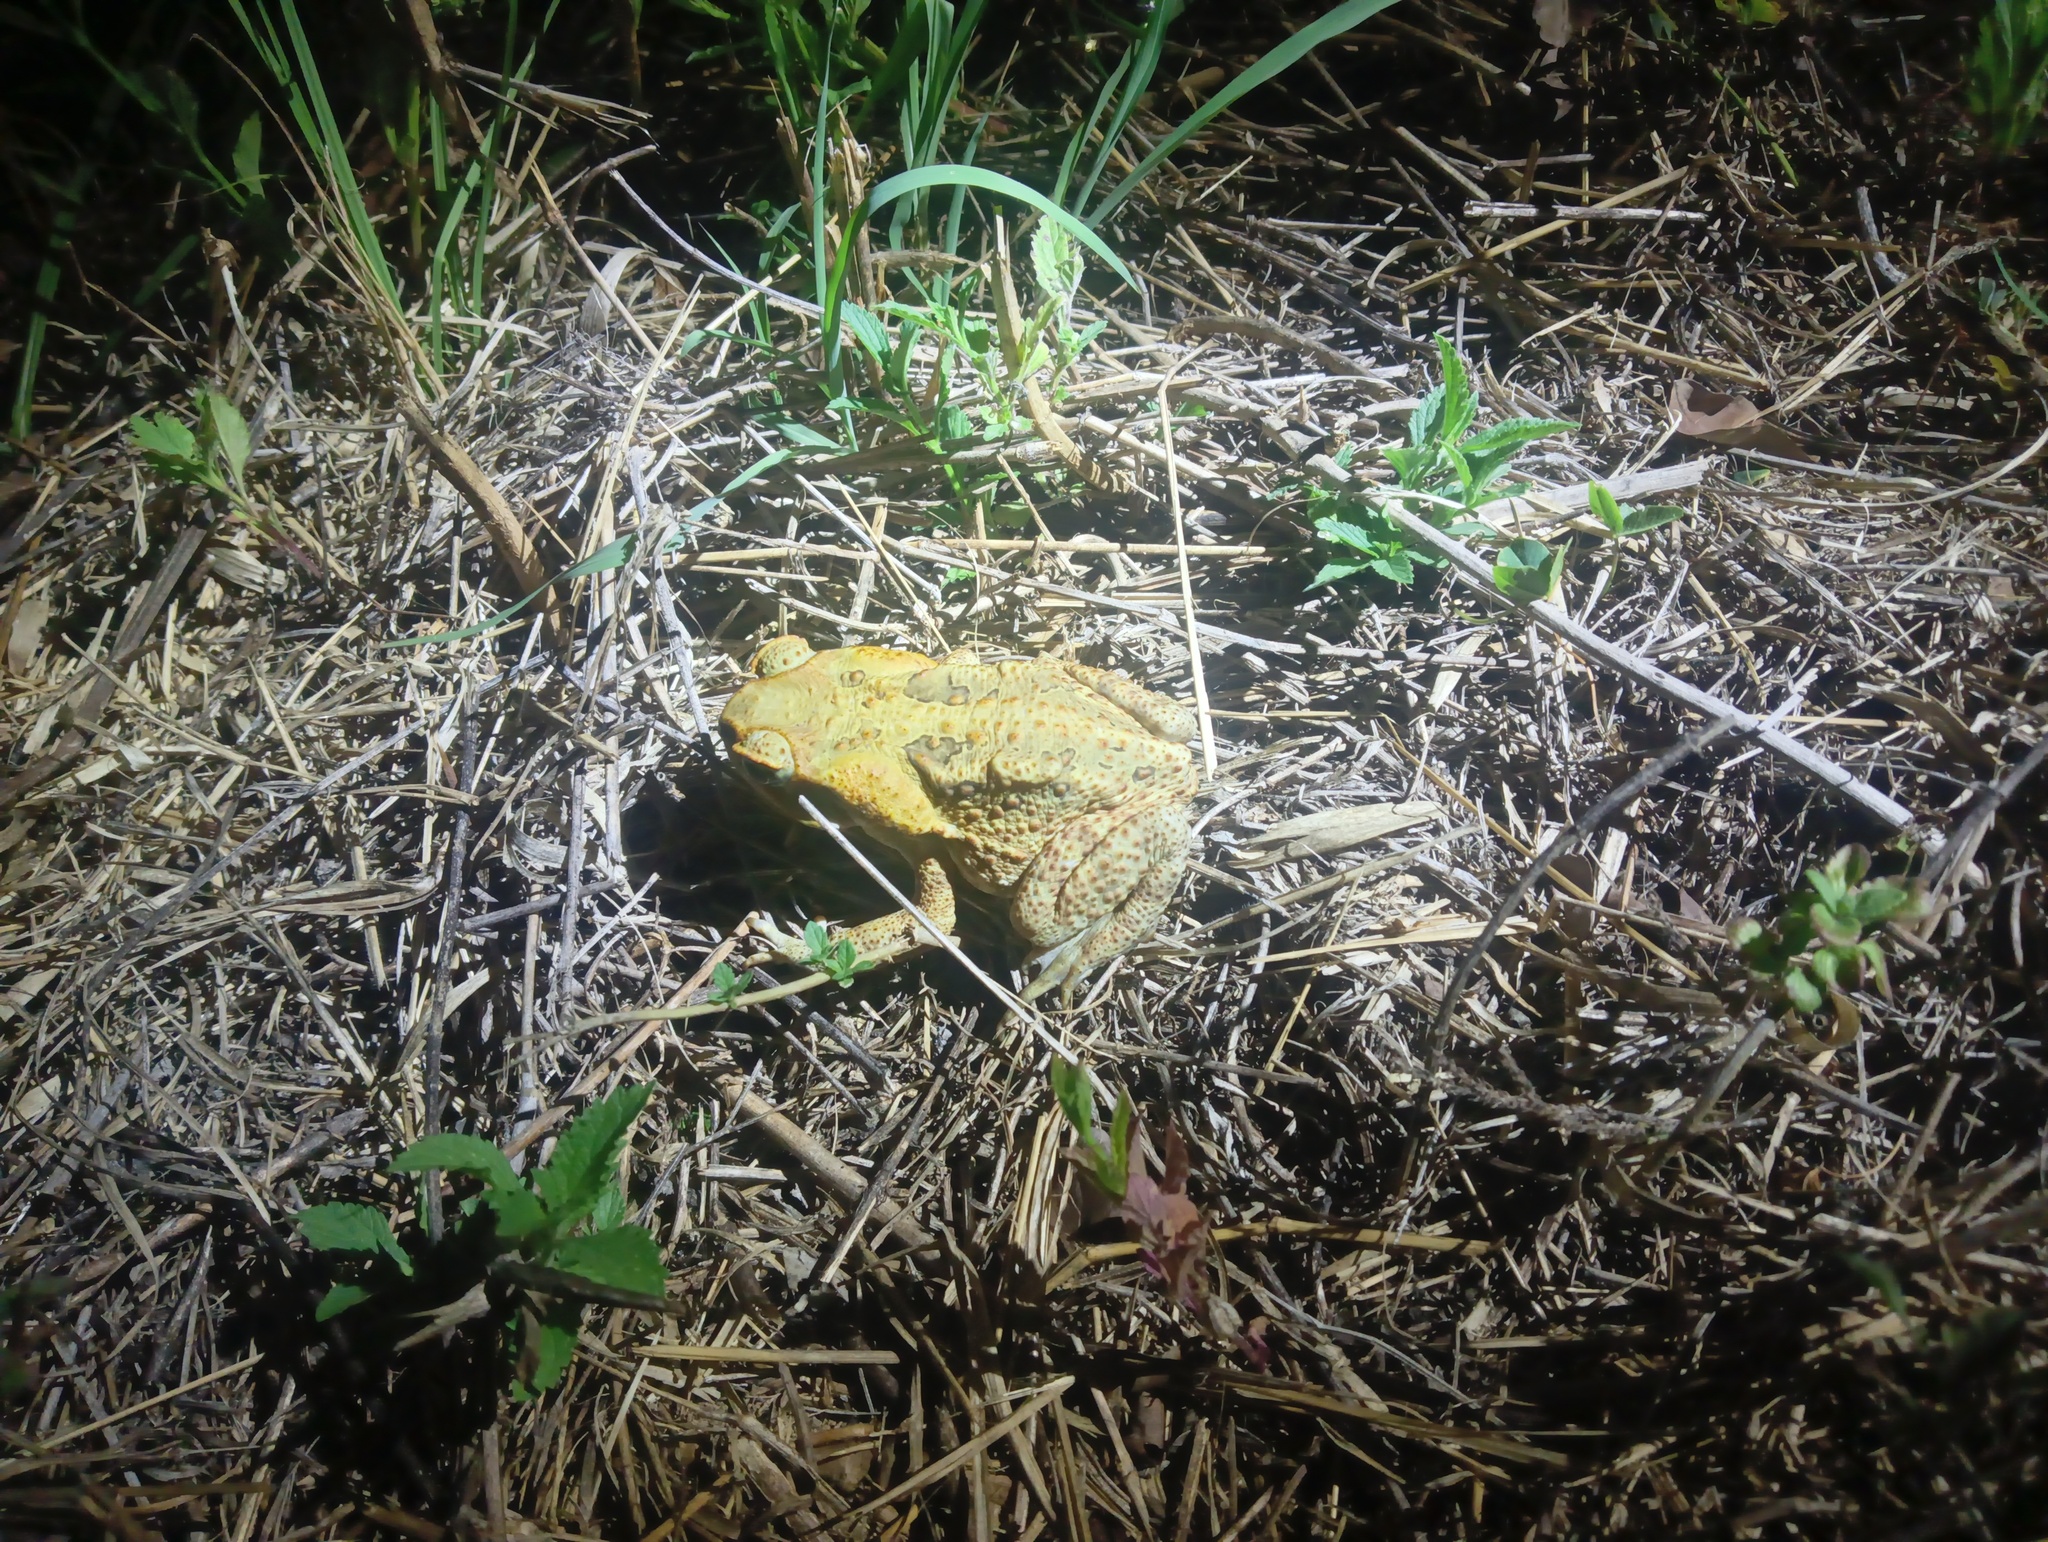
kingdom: Animalia
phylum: Chordata
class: Amphibia
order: Anura
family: Bufonidae
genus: Rhinella
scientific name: Rhinella marina
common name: Cane toad
